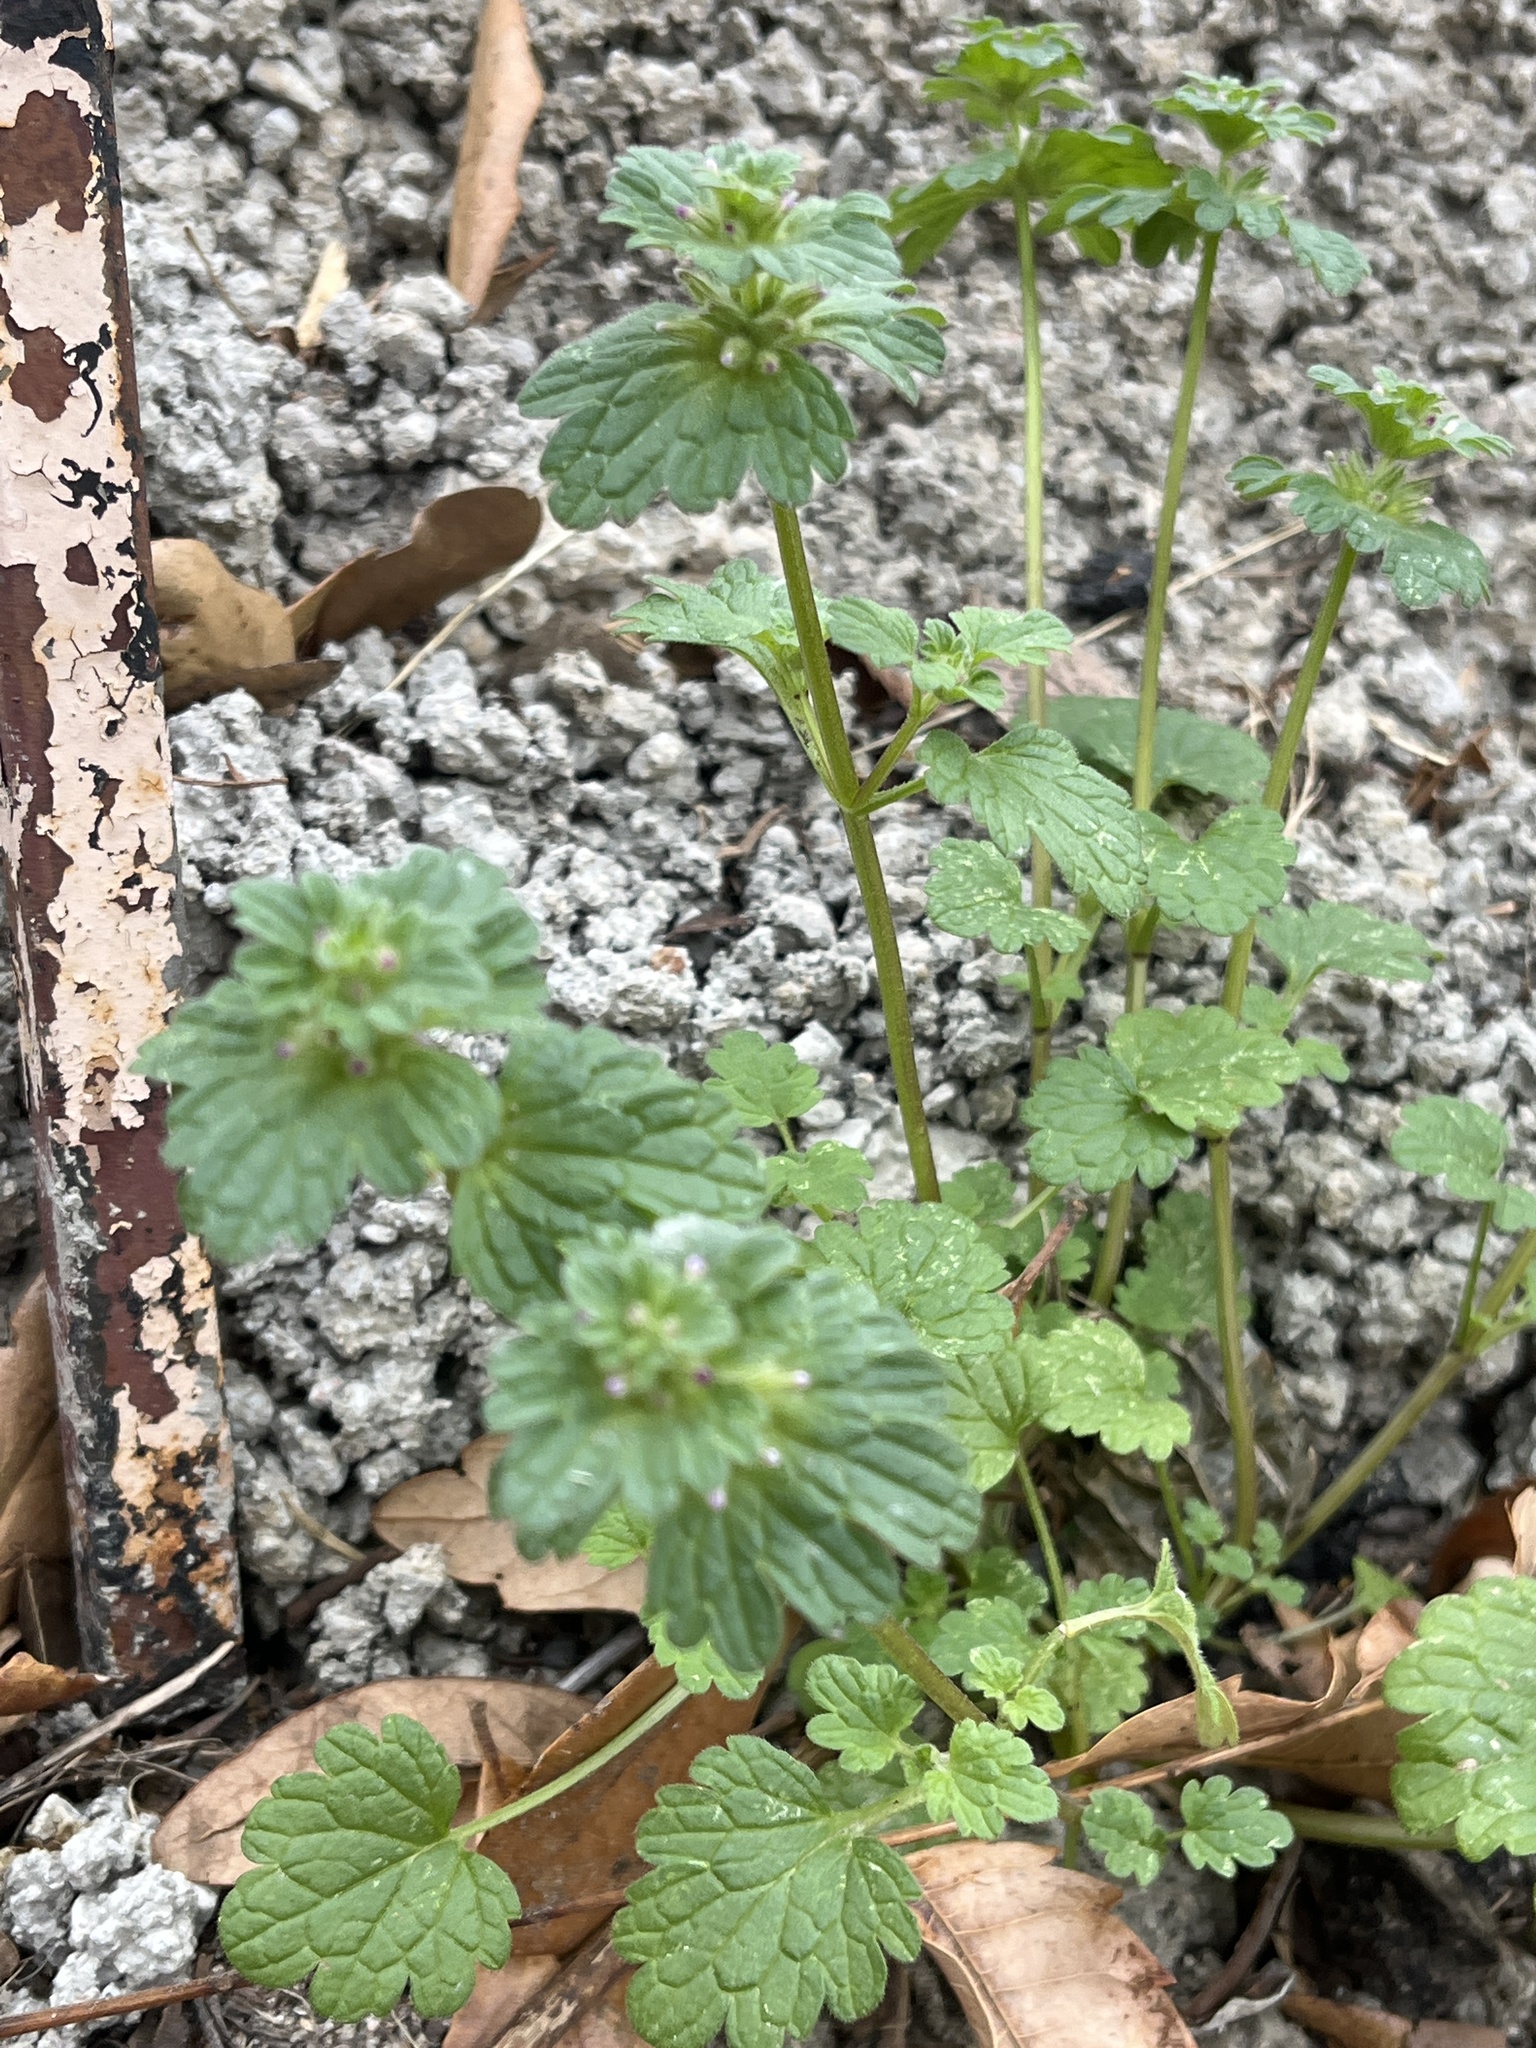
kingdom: Plantae
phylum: Tracheophyta
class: Magnoliopsida
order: Lamiales
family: Lamiaceae
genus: Lamium
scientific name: Lamium amplexicaule
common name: Henbit dead-nettle
